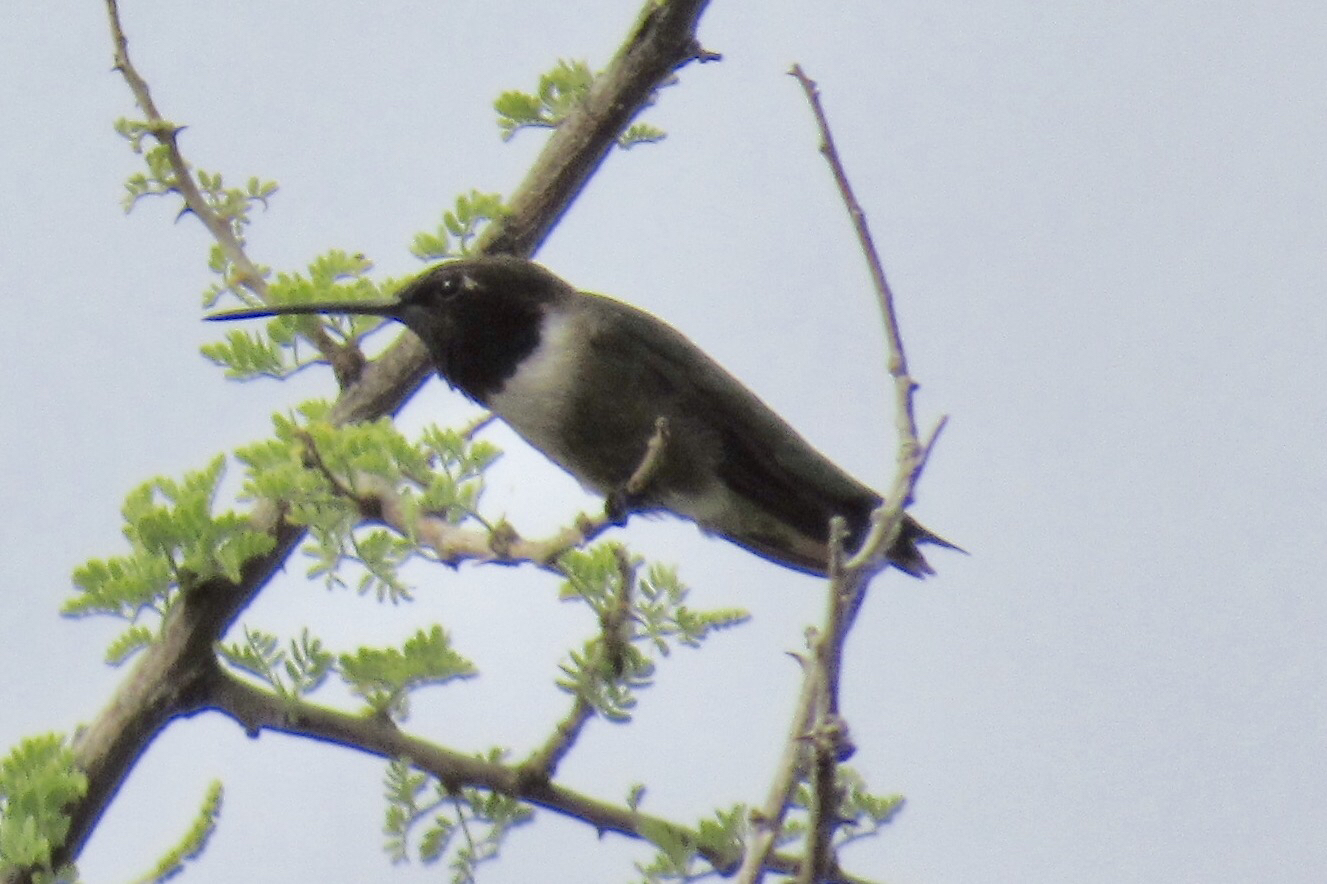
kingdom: Animalia
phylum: Chordata
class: Aves
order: Apodiformes
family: Trochilidae
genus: Archilochus
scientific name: Archilochus alexandri
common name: Black-chinned hummingbird
